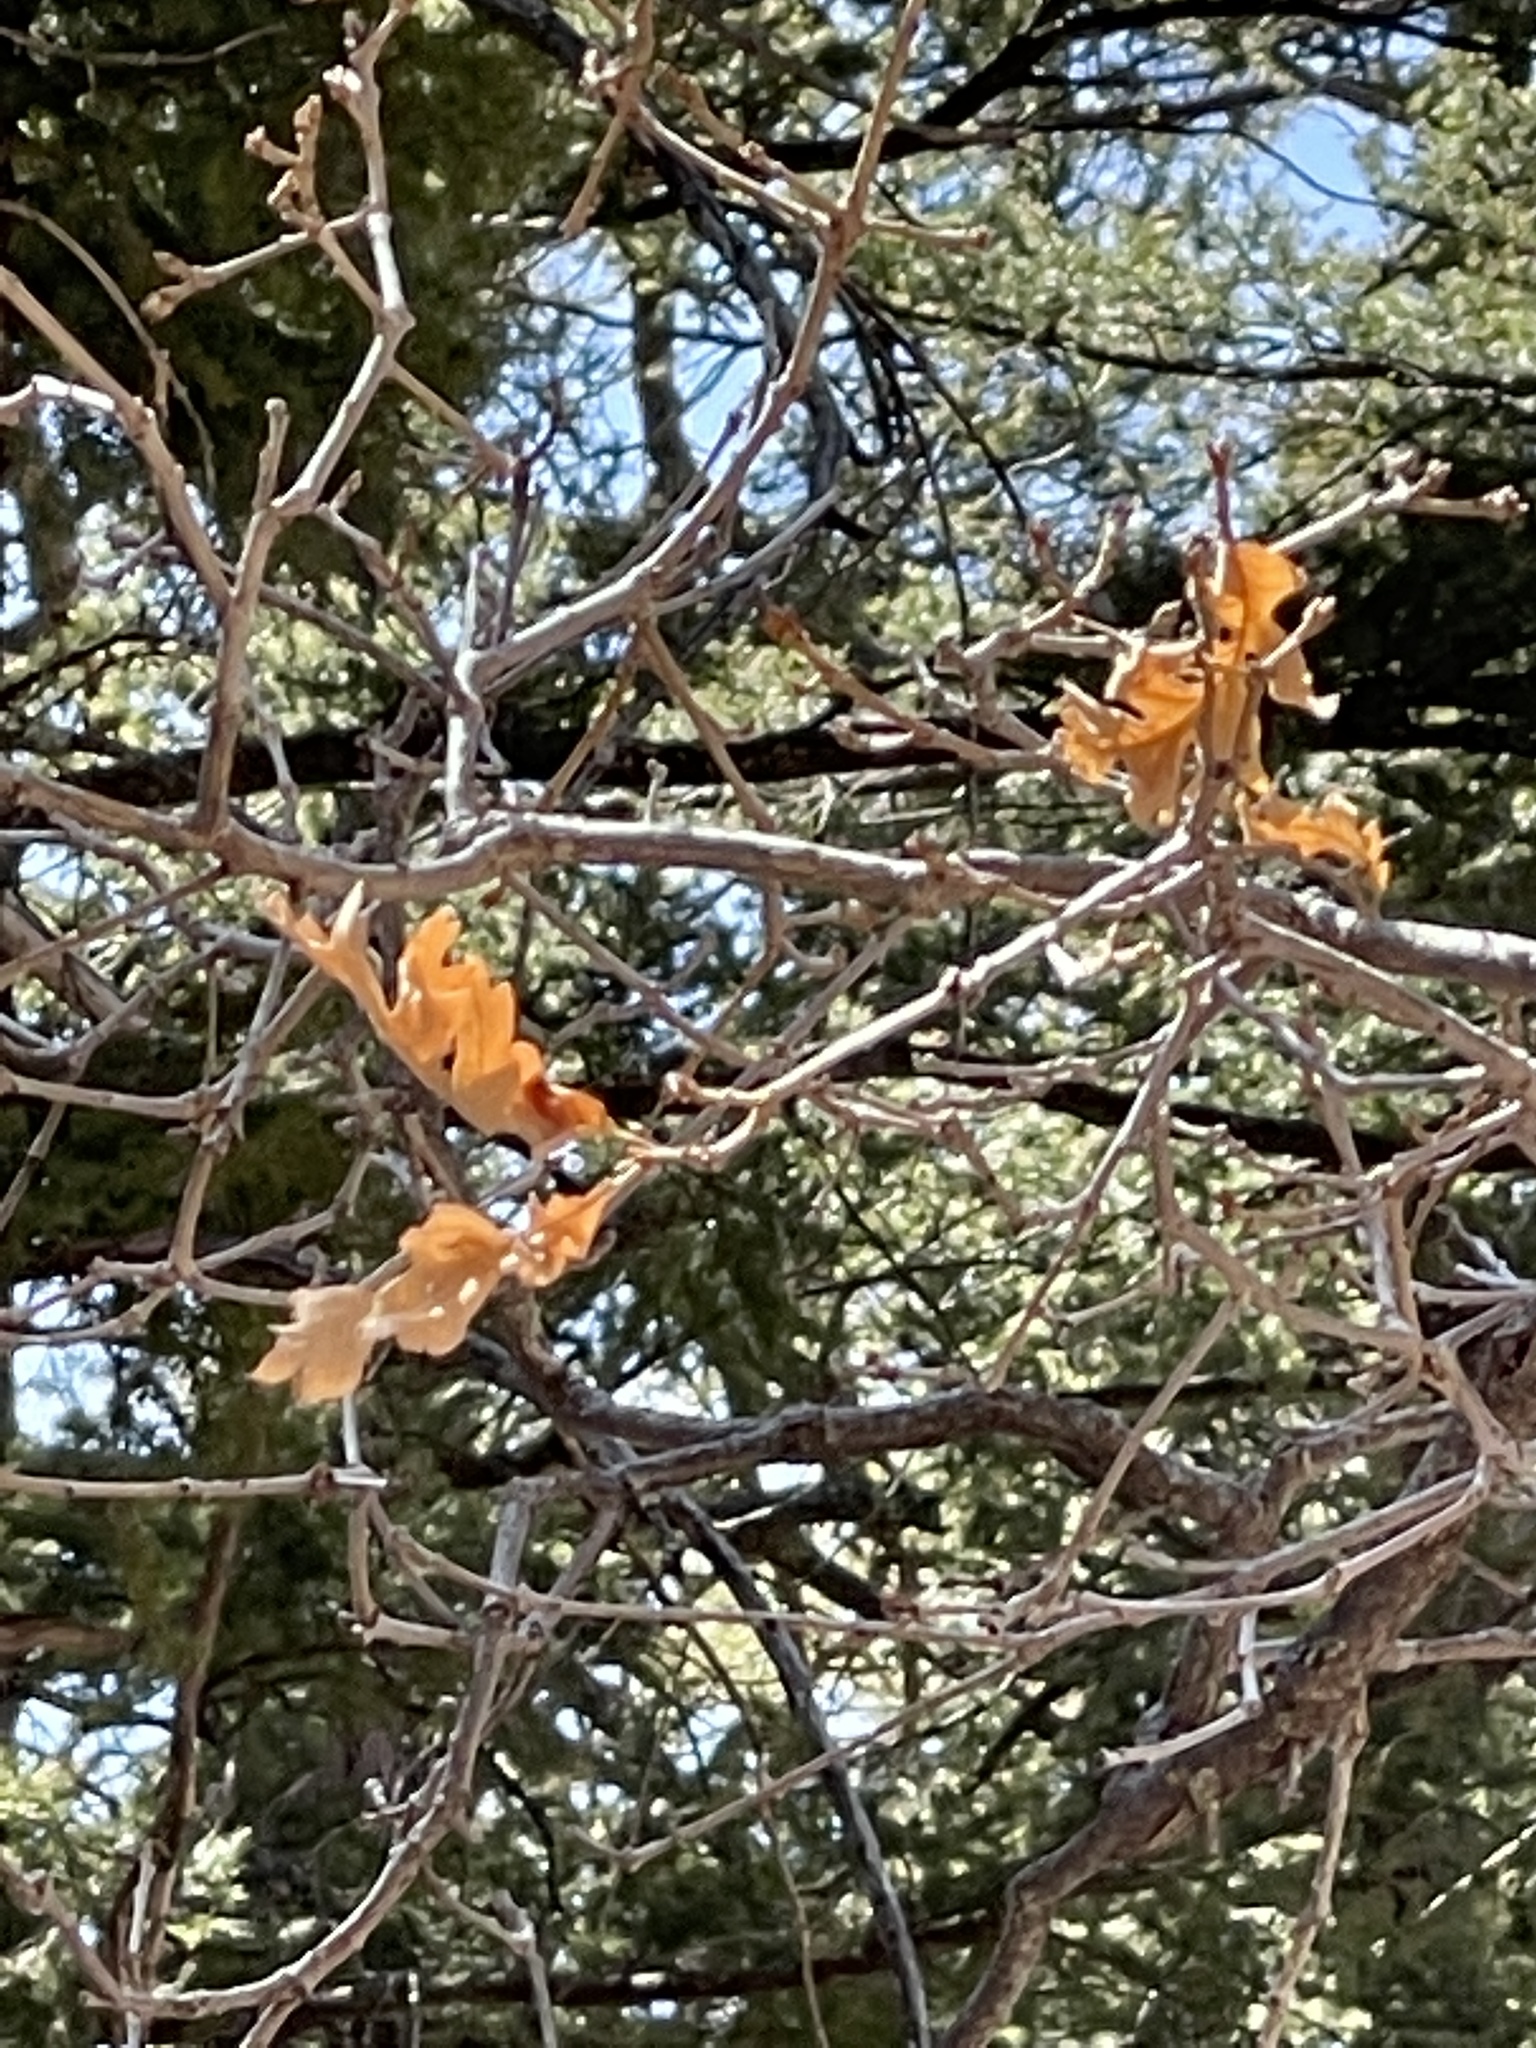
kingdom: Plantae
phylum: Tracheophyta
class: Magnoliopsida
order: Fagales
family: Fagaceae
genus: Quercus
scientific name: Quercus gambelii
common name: Gambel oak
